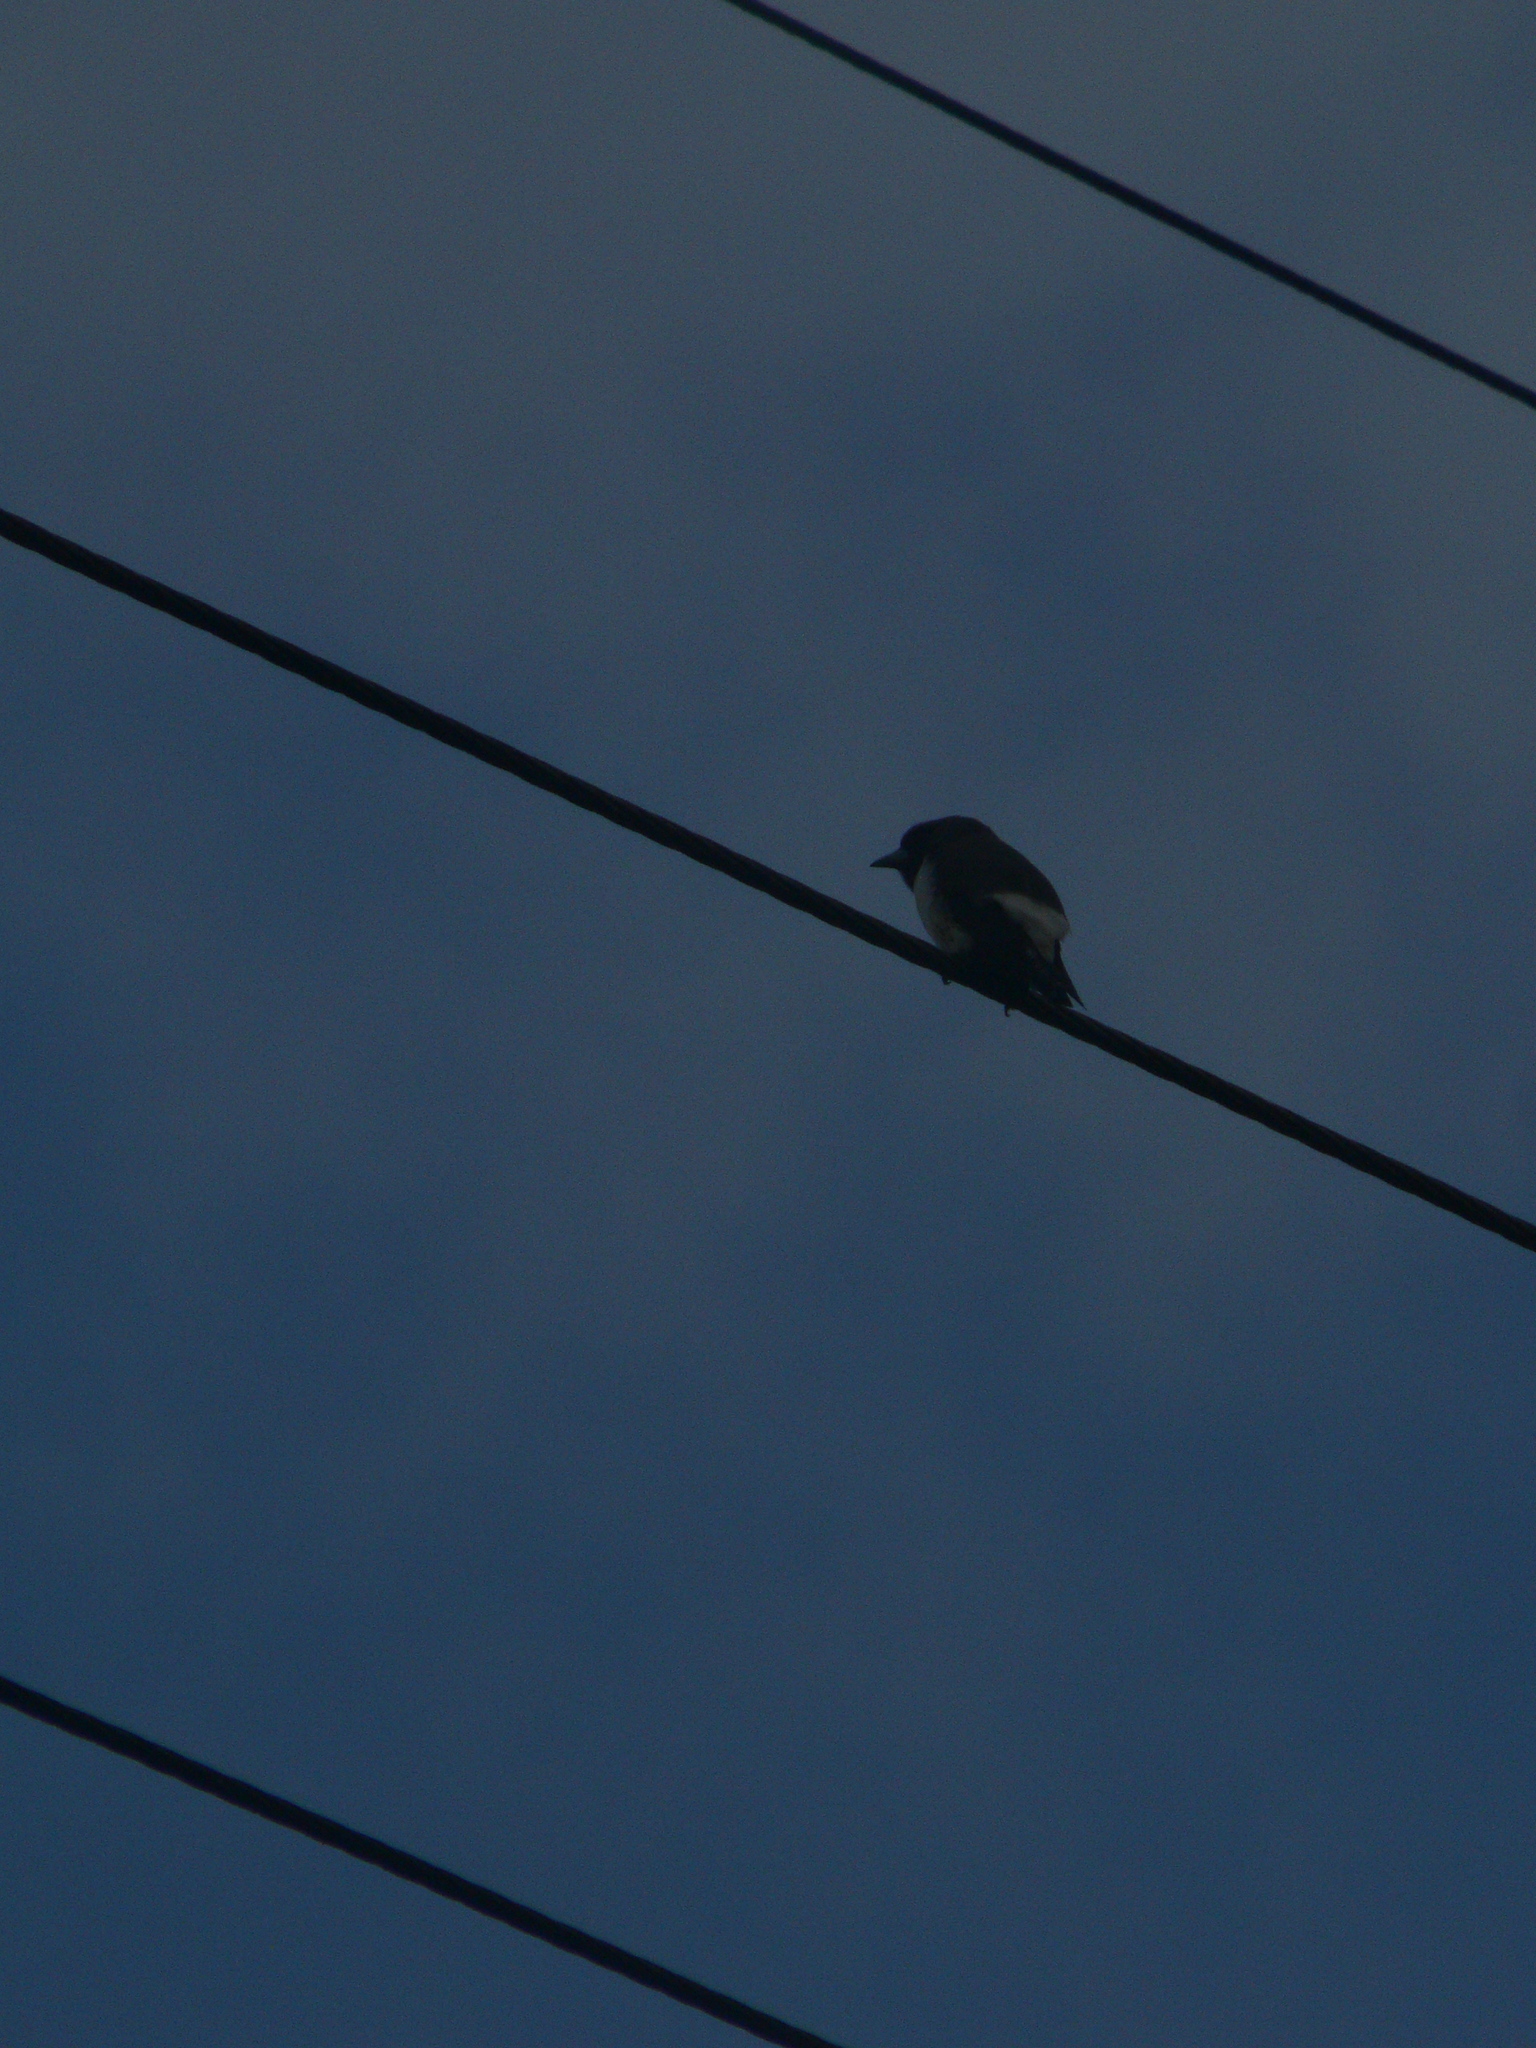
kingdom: Animalia
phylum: Chordata
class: Aves
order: Passeriformes
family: Artamidae
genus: Artamus
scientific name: Artamus leucoryn
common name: White-breasted woodswallow
